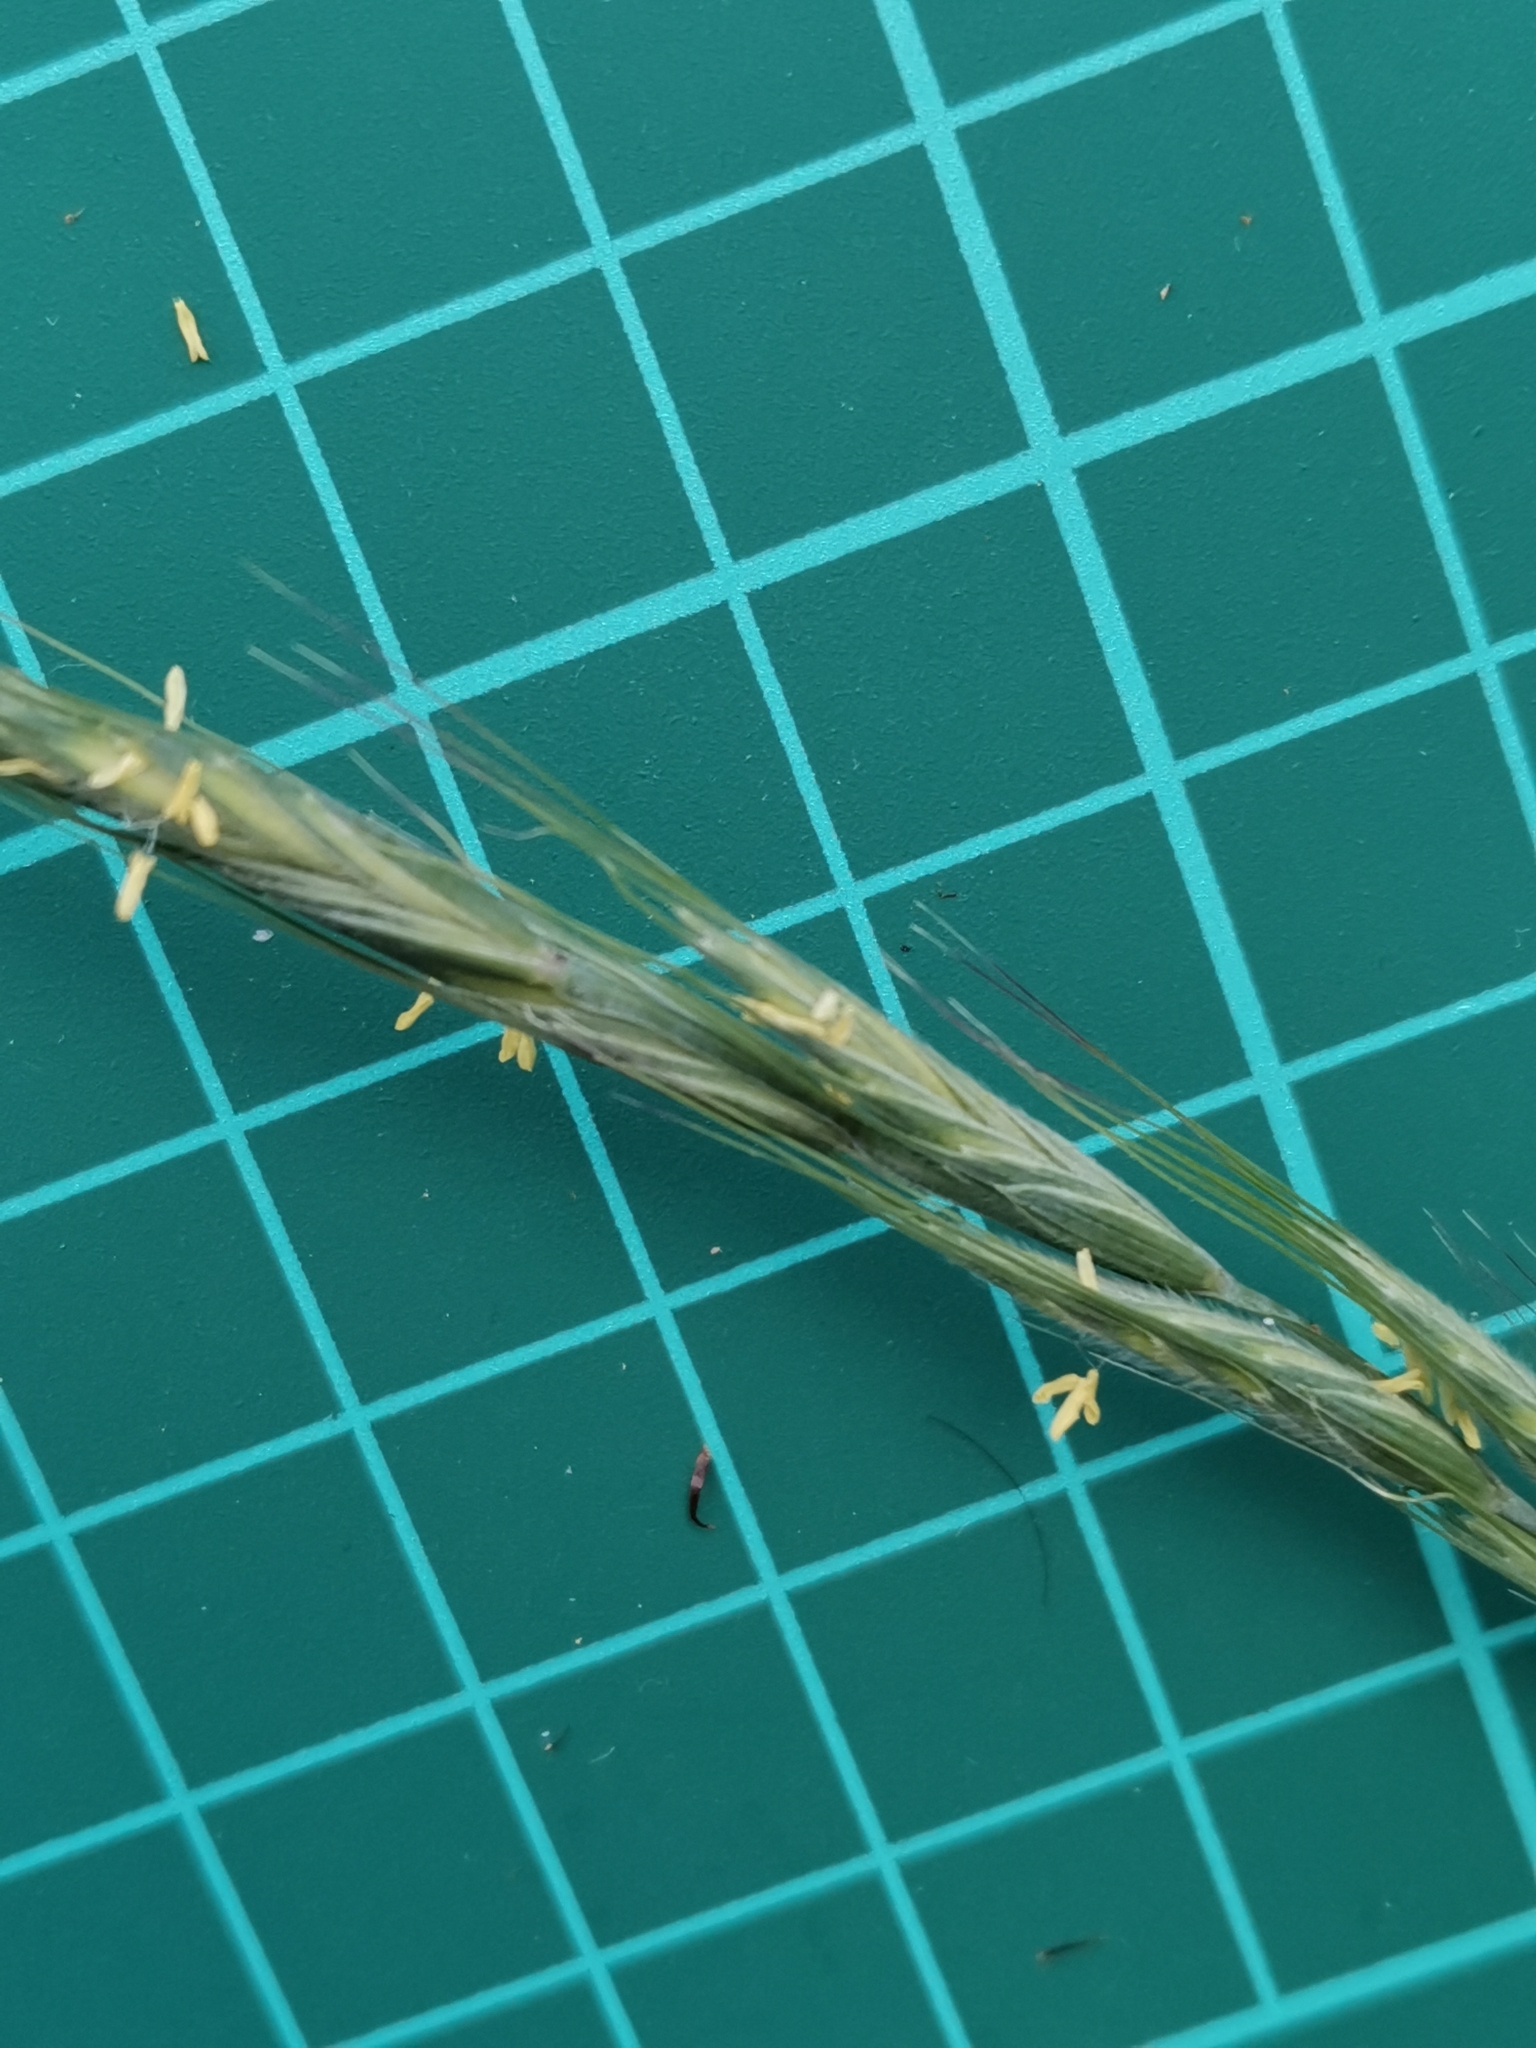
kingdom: Plantae
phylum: Tracheophyta
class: Liliopsida
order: Poales
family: Poaceae
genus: Elymus
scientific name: Elymus ciliaris
